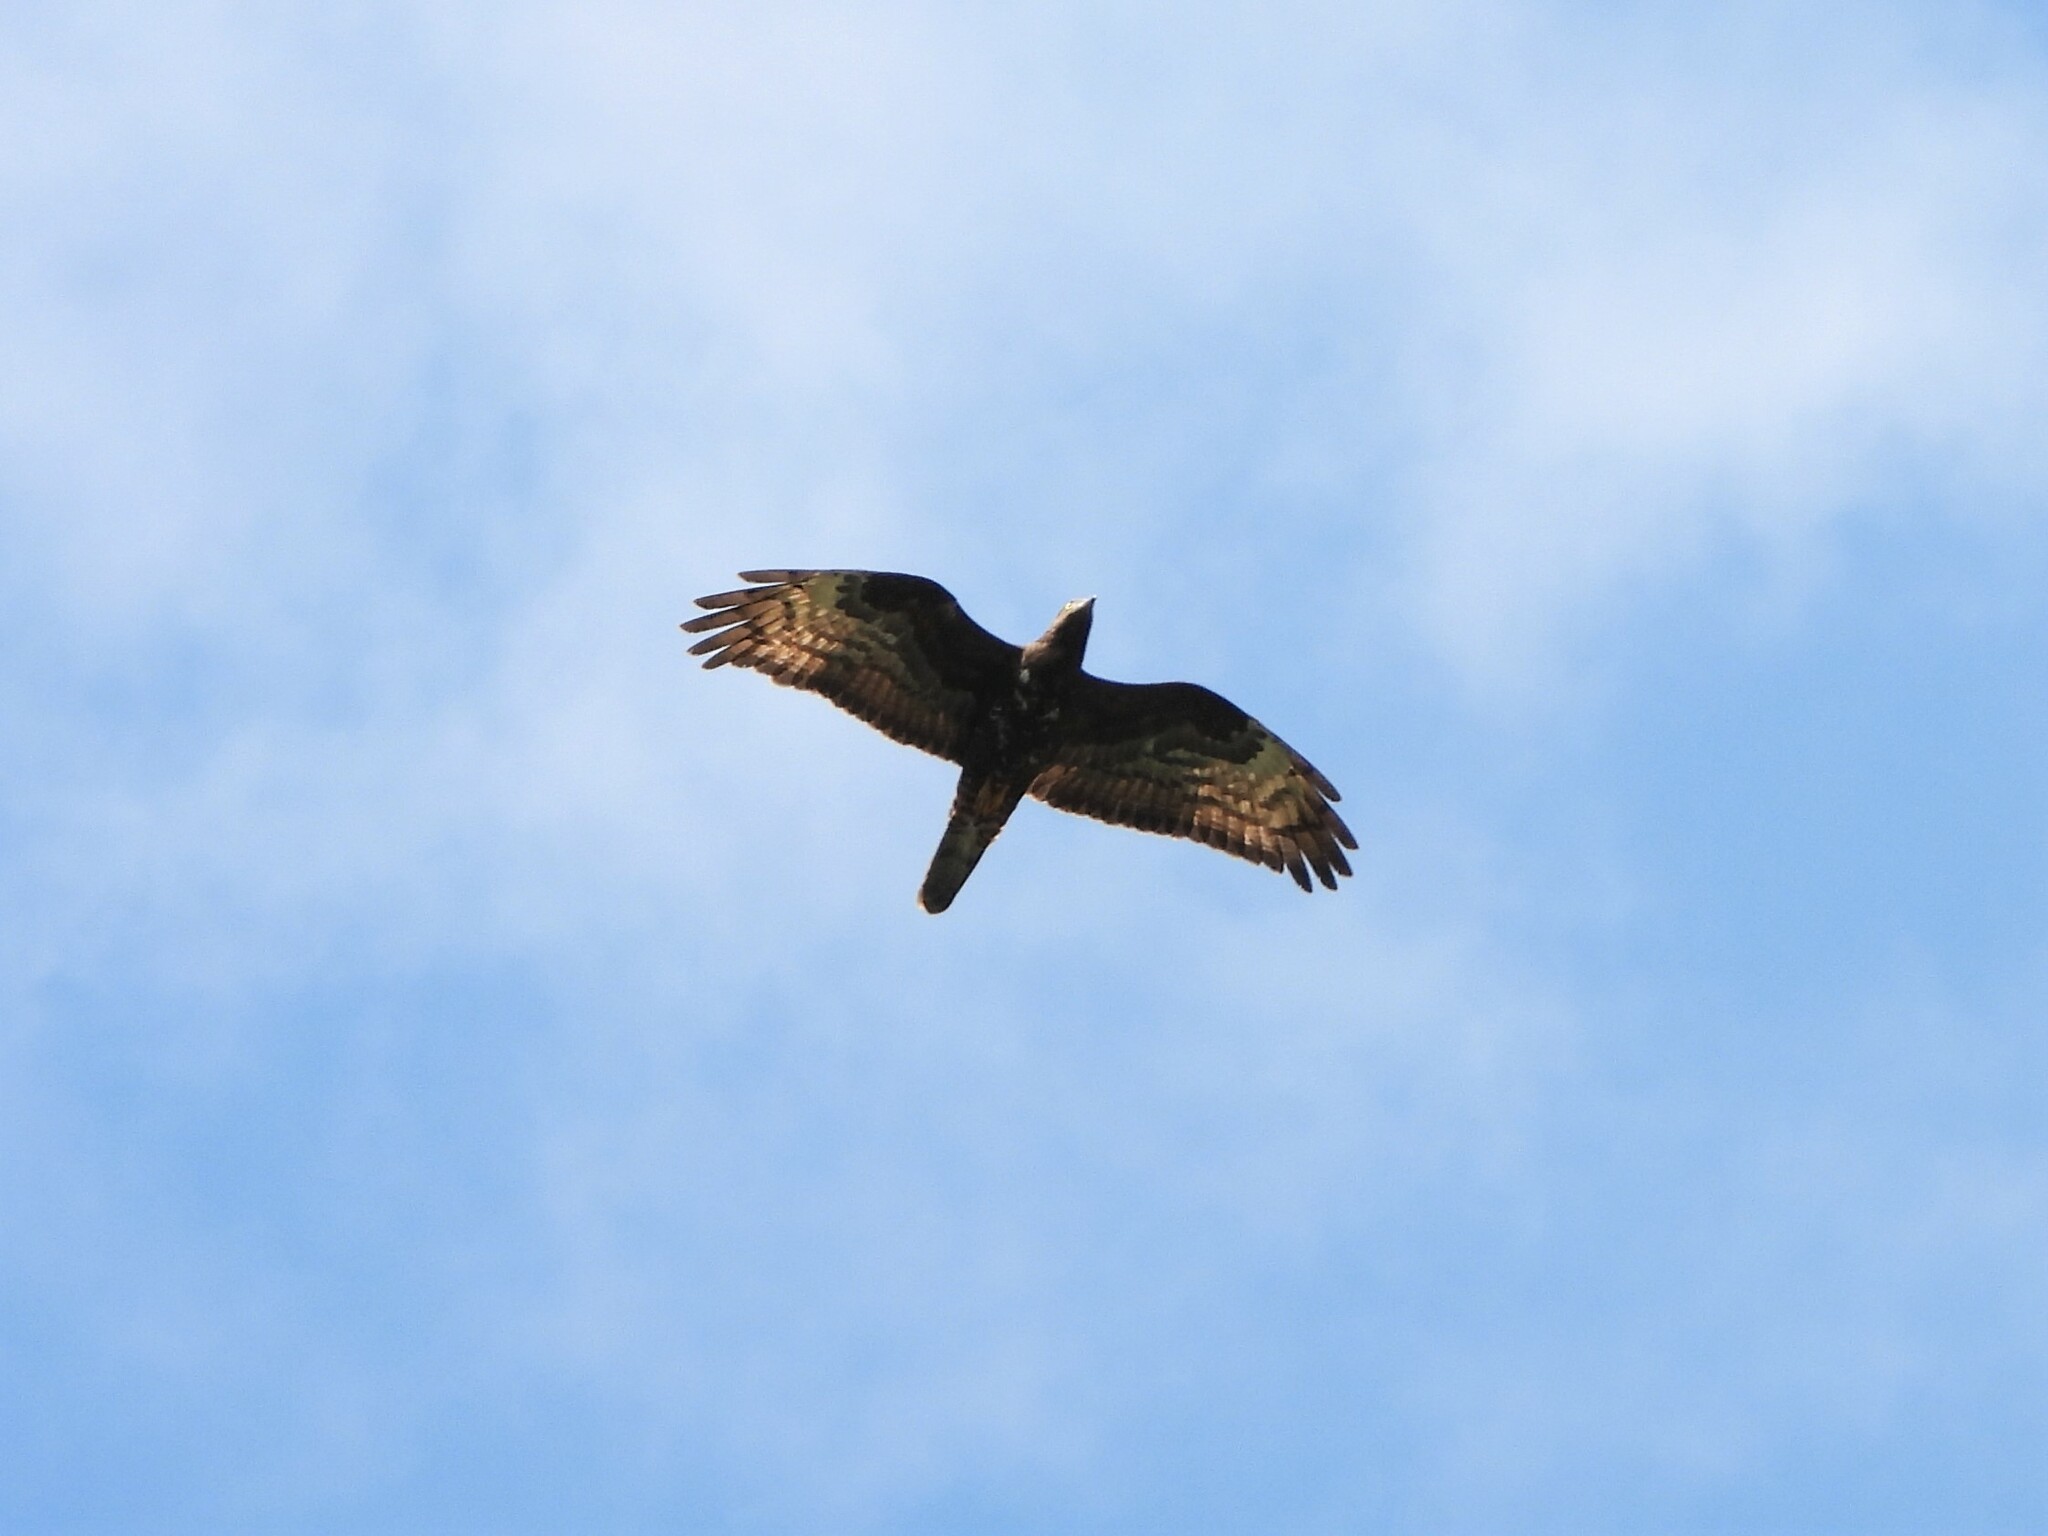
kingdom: Animalia
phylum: Chordata
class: Aves
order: Accipitriformes
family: Accipitridae
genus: Pernis
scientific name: Pernis apivorus
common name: European honey buzzard
